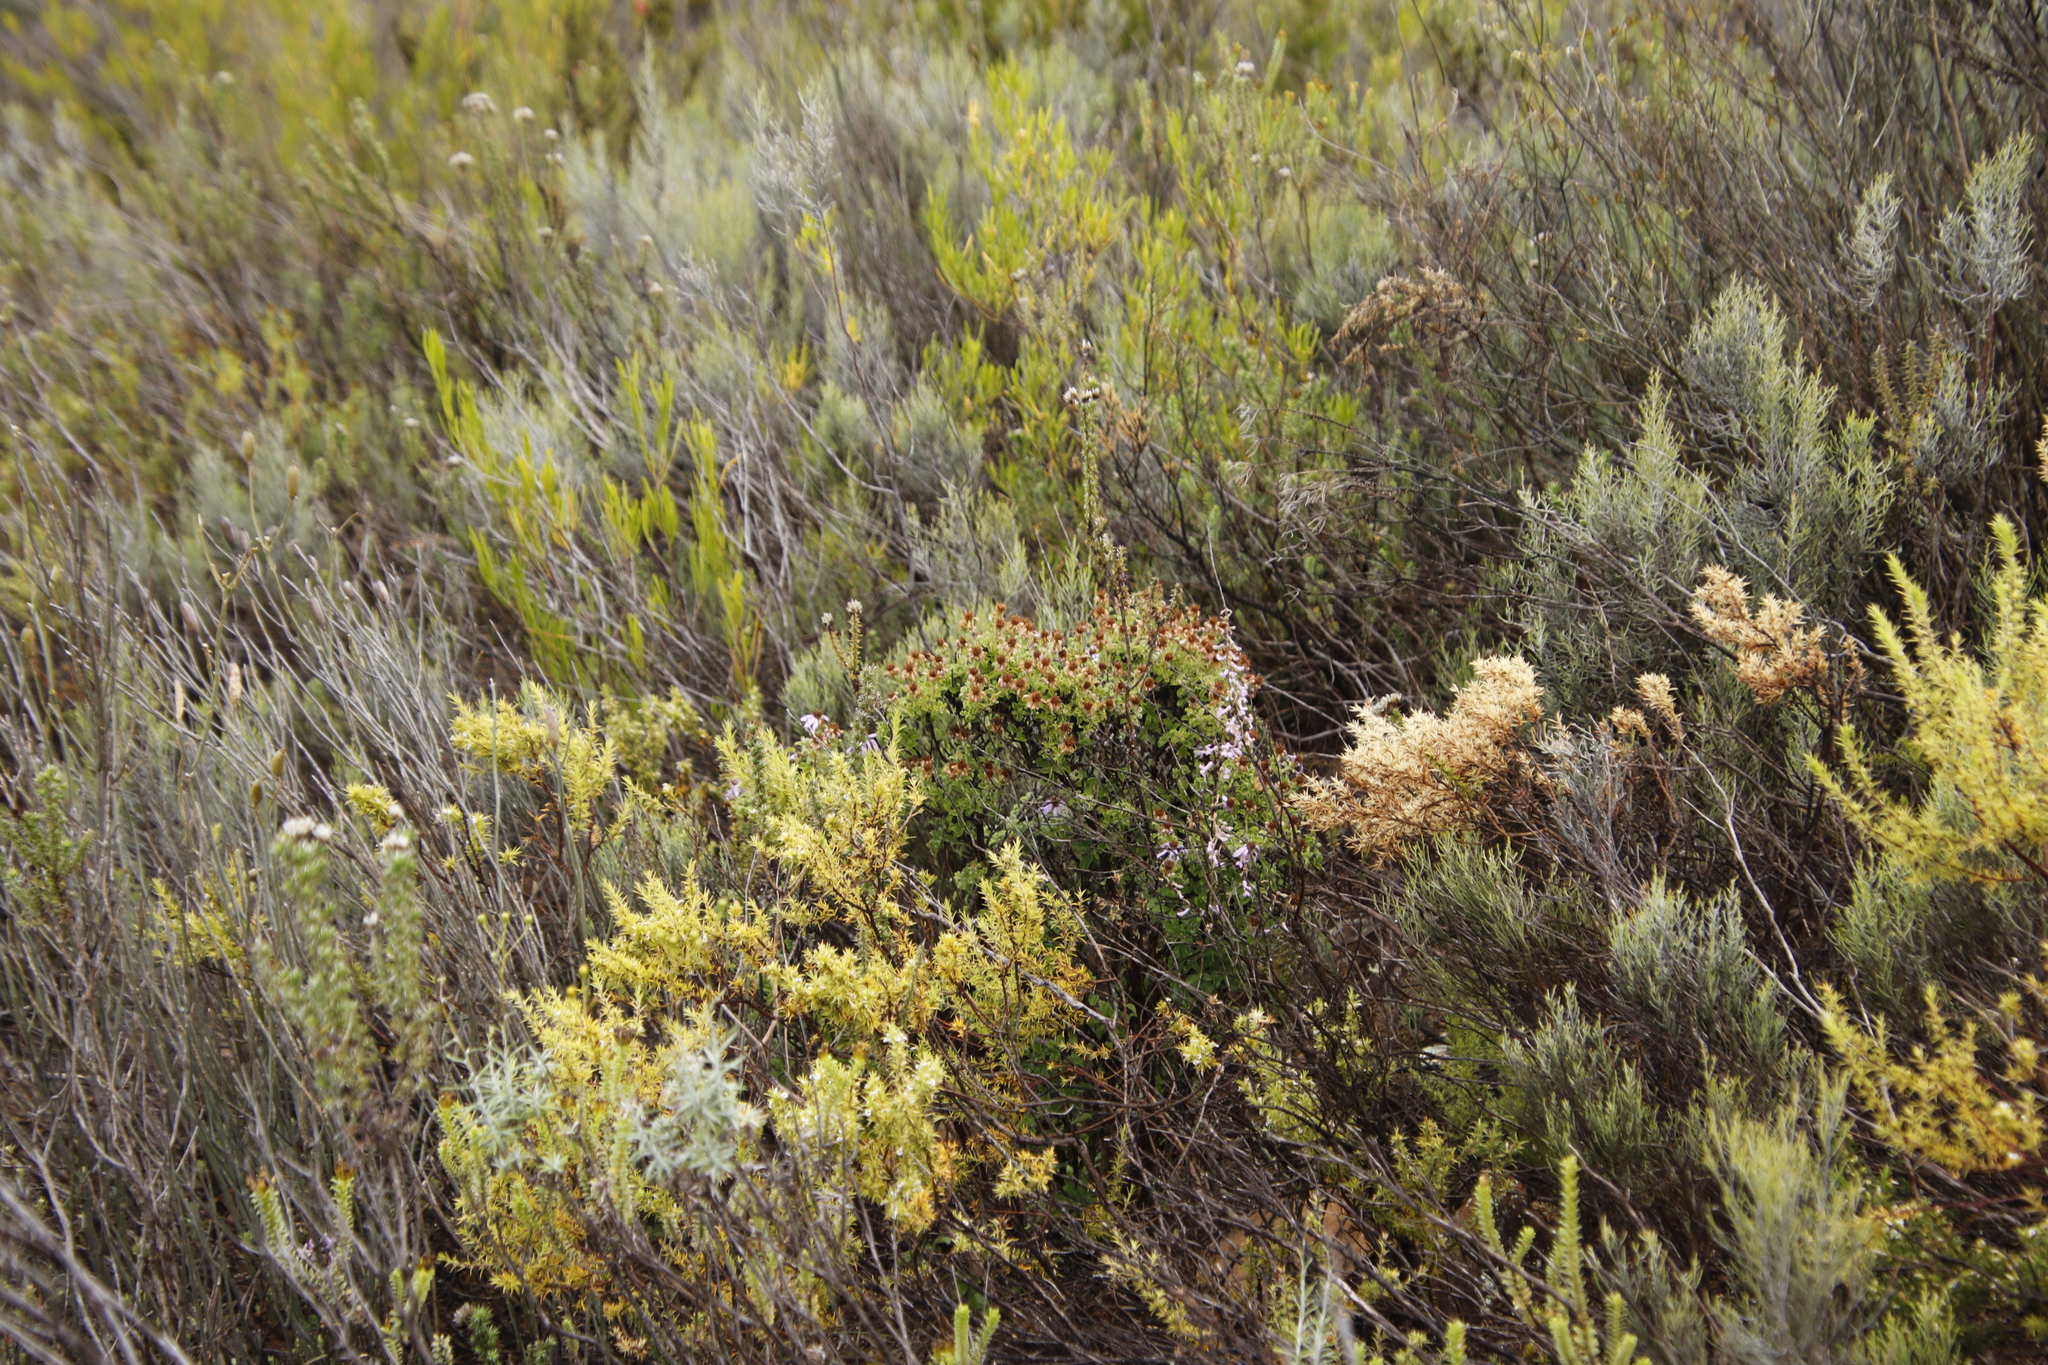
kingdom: Plantae
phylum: Tracheophyta
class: Magnoliopsida
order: Asterales
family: Asteraceae
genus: Printzia
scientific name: Printzia polifolia
